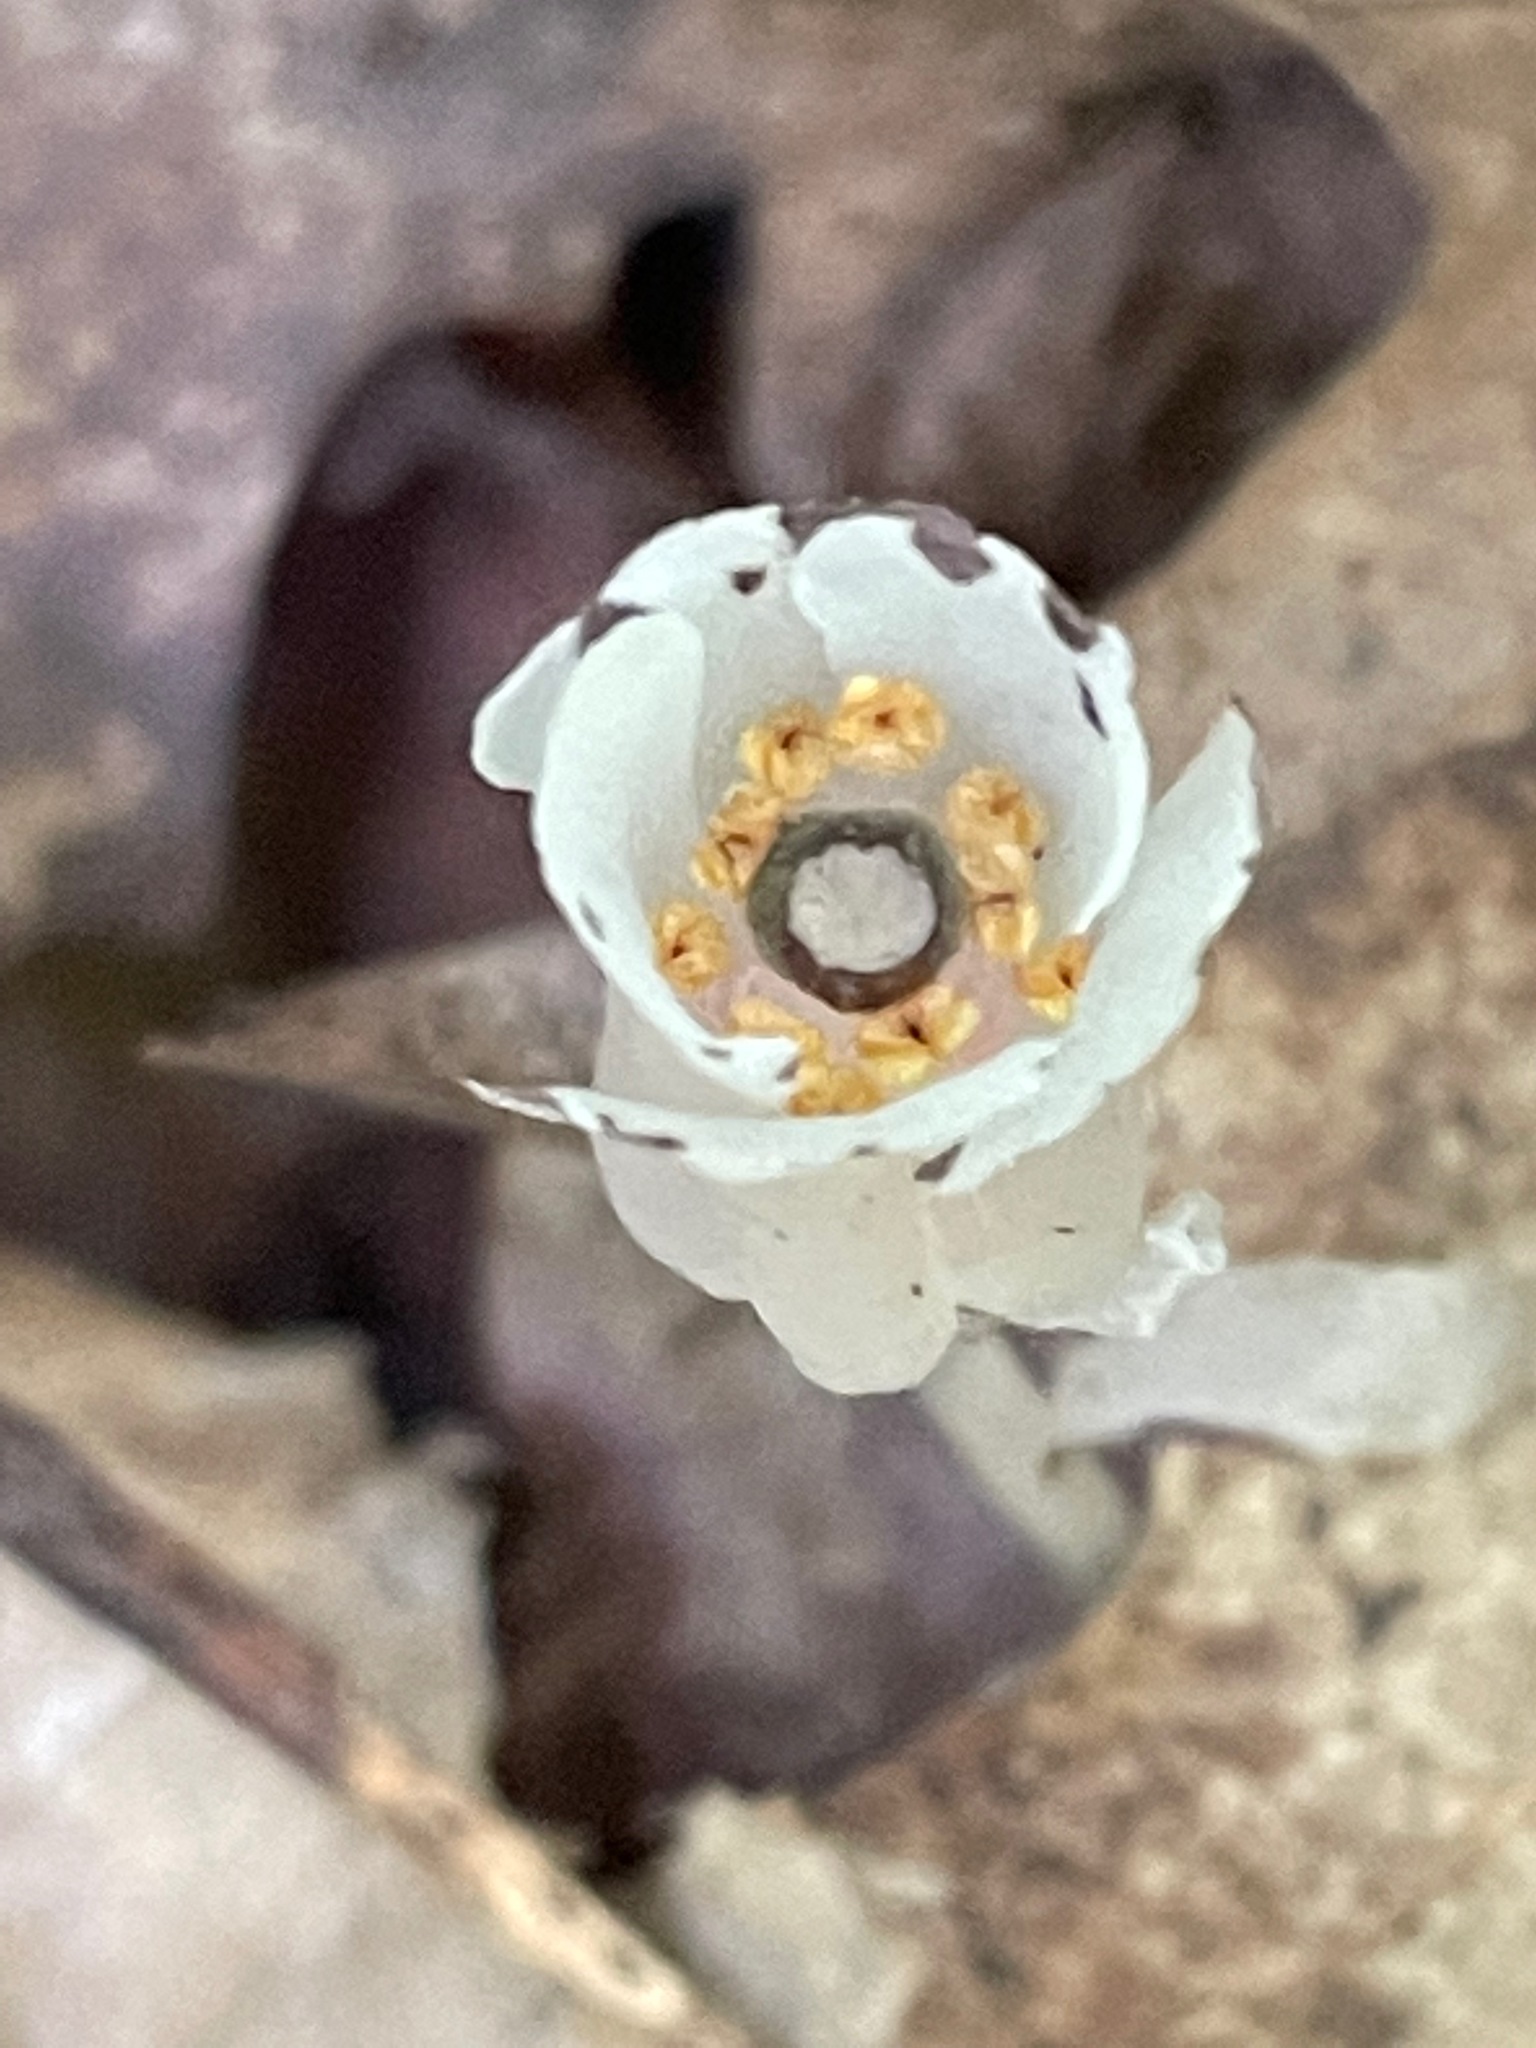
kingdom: Plantae
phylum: Tracheophyta
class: Magnoliopsida
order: Ericales
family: Ericaceae
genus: Monotropa
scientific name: Monotropa uniflora
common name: Convulsion root
